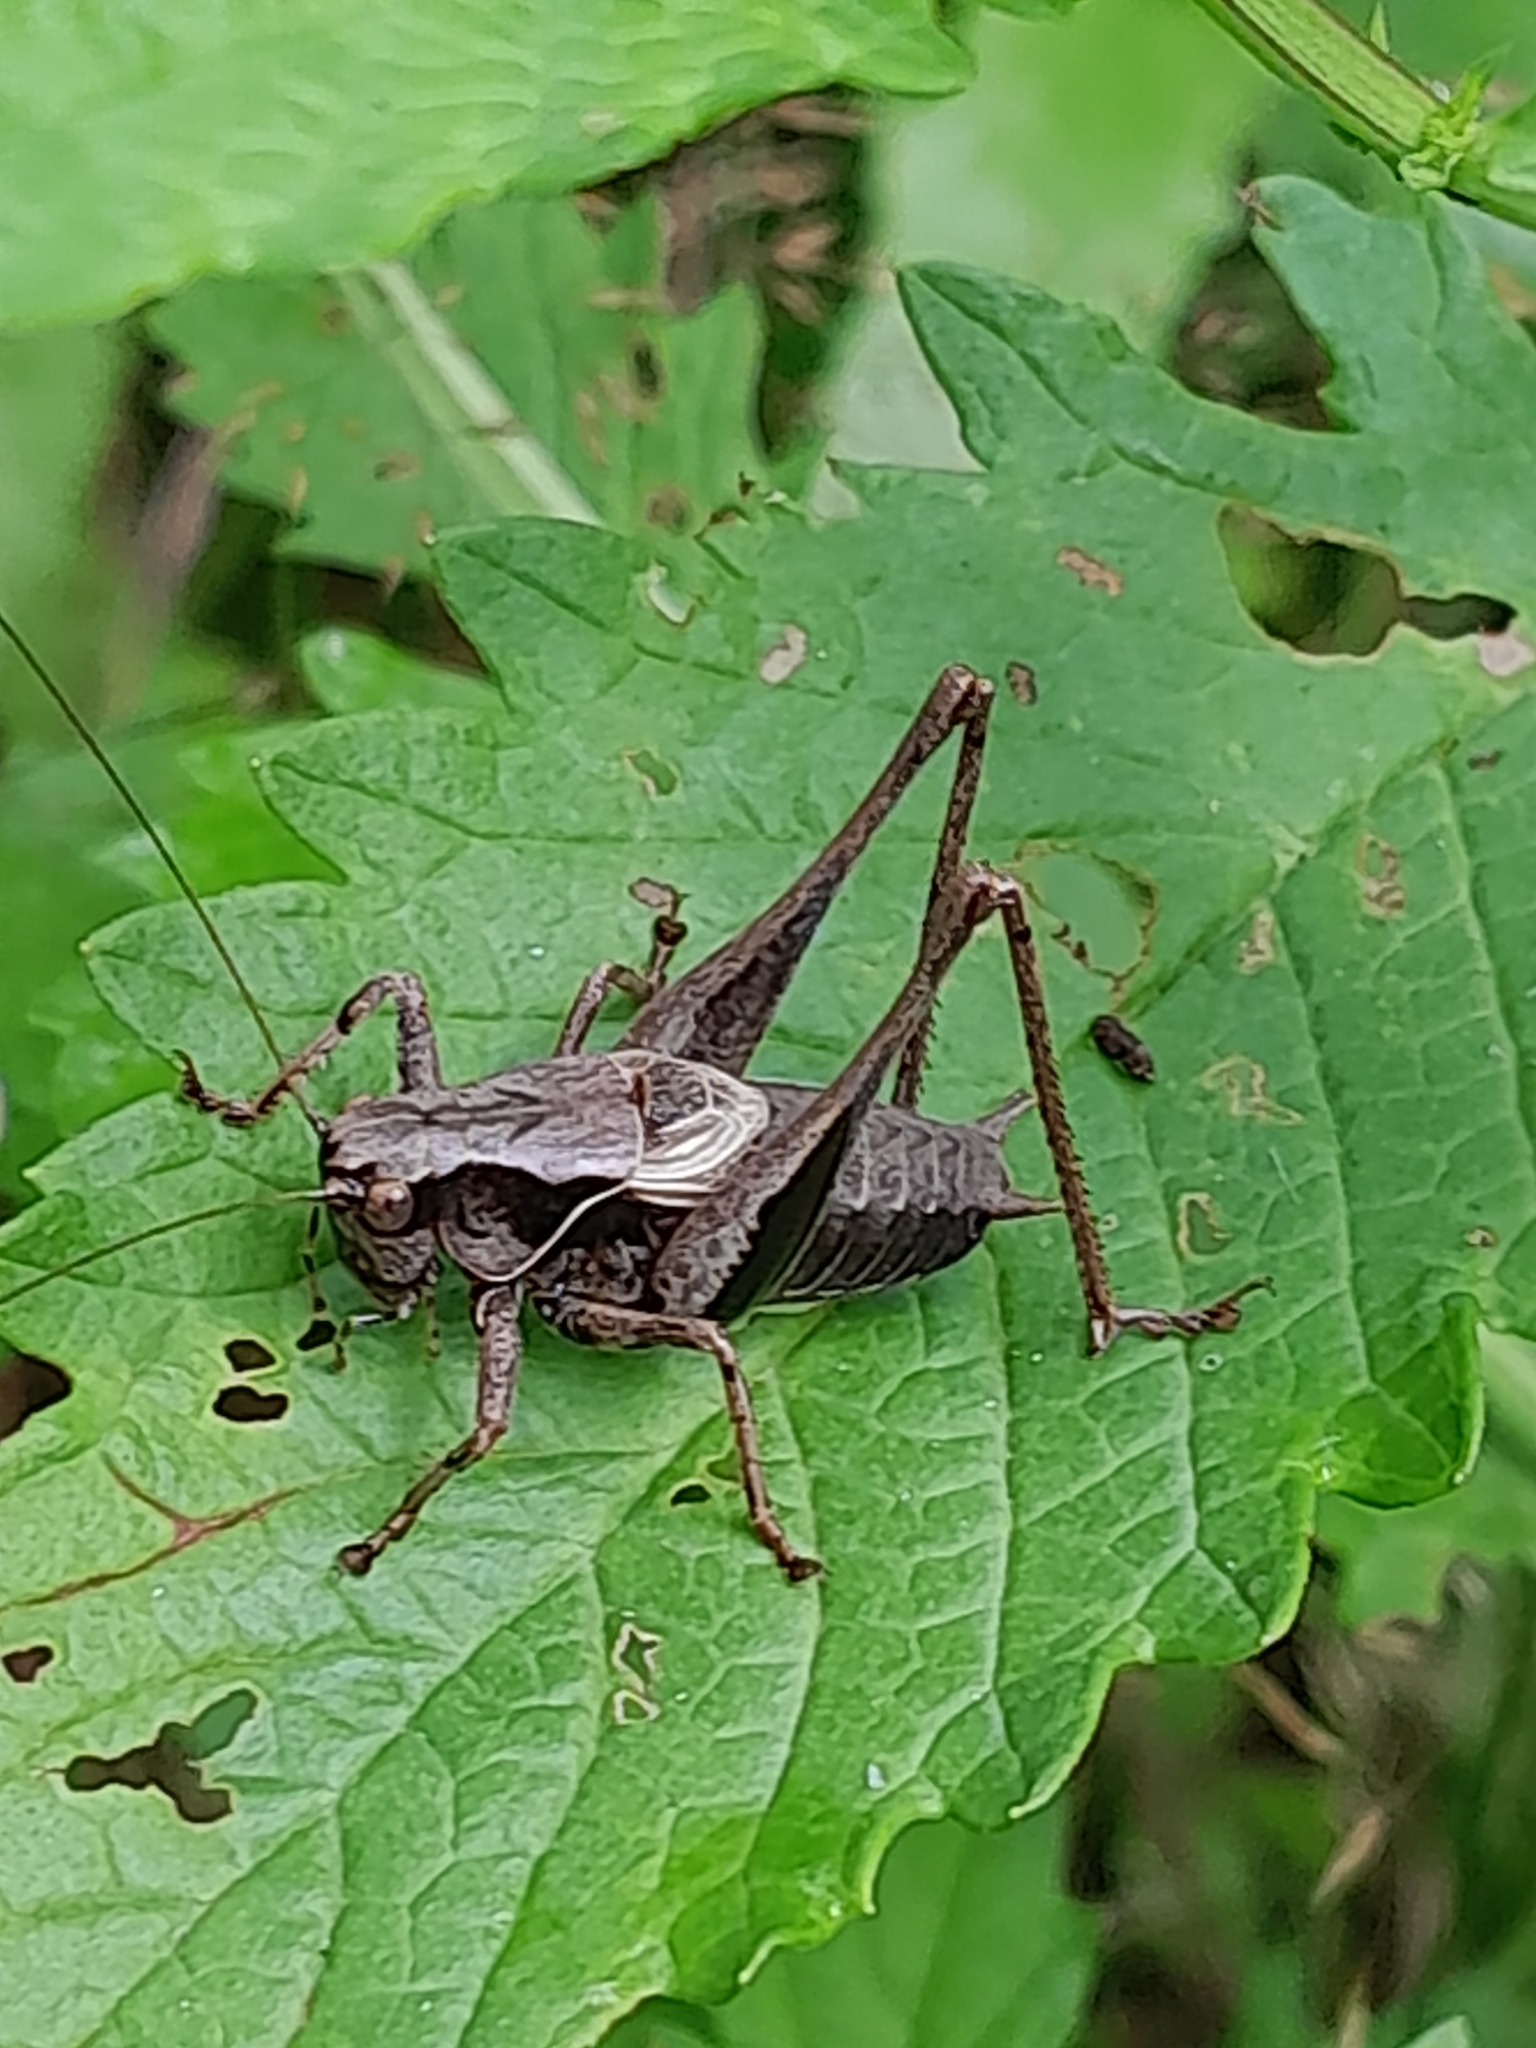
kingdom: Animalia
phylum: Arthropoda
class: Insecta
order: Orthoptera
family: Tettigoniidae
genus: Pholidoptera
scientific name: Pholidoptera griseoaptera
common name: Dark bush-cricket
